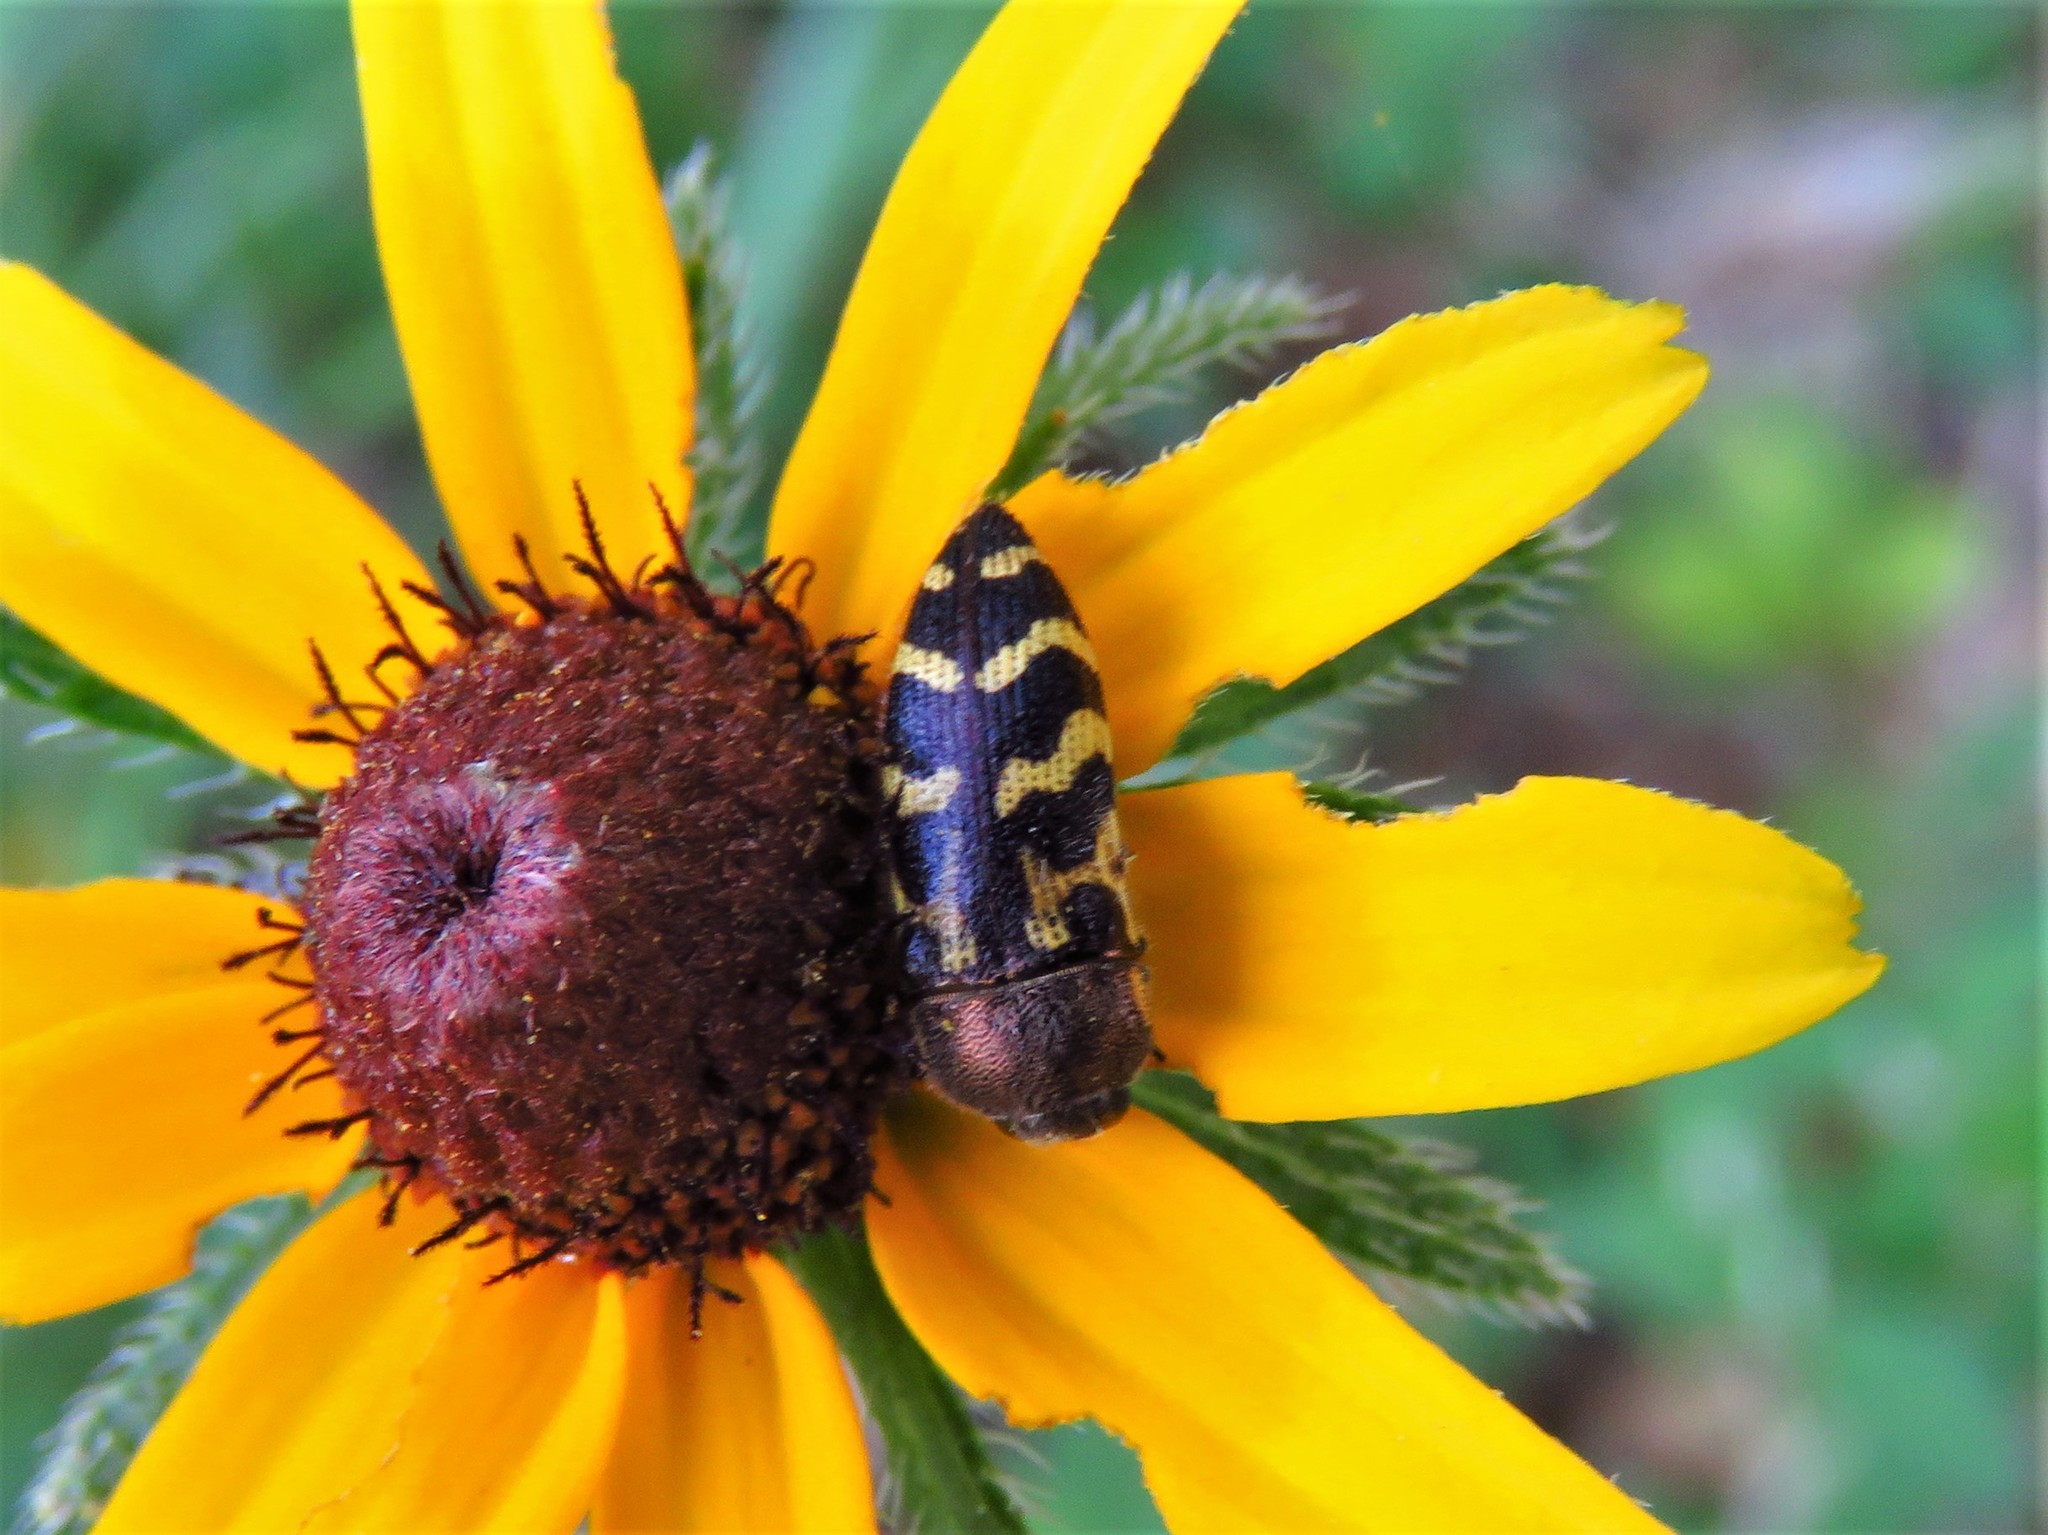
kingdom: Animalia
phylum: Arthropoda
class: Insecta
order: Coleoptera
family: Buprestidae
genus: Acmaeodera
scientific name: Acmaeodera mixta
